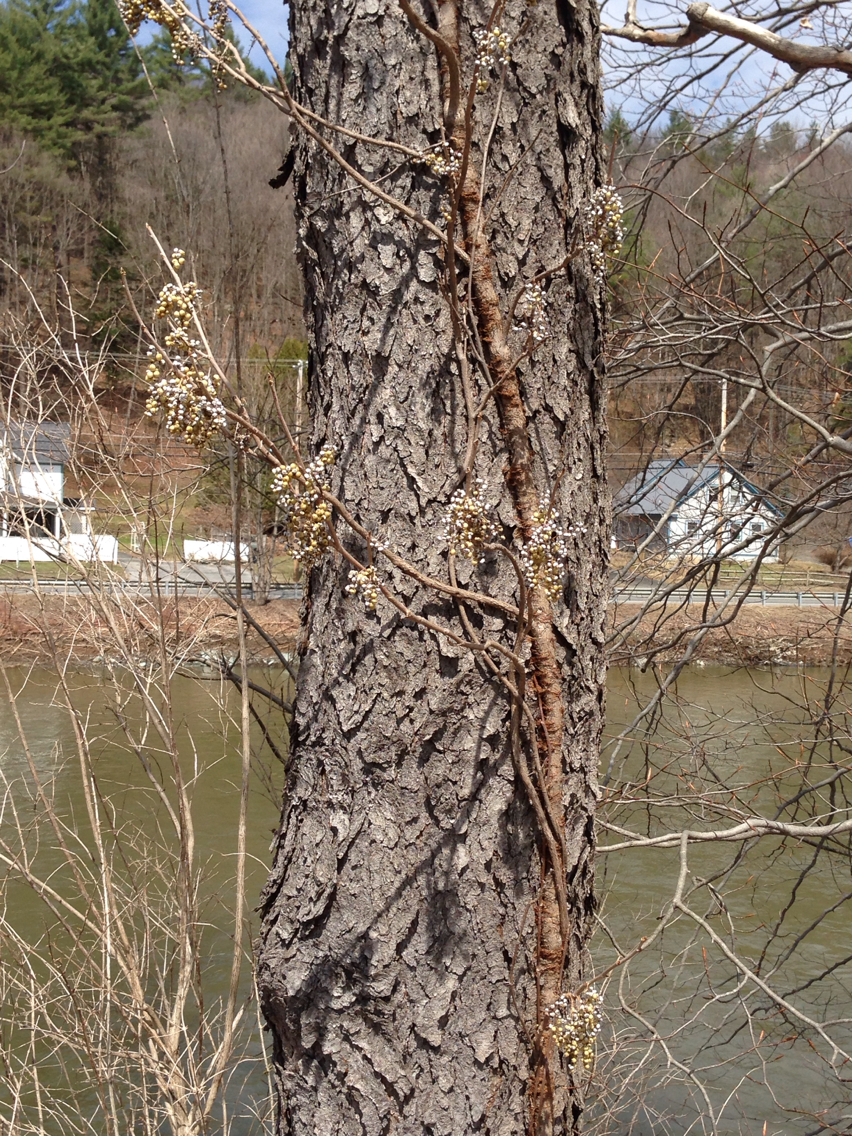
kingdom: Plantae
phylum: Tracheophyta
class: Magnoliopsida
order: Sapindales
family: Anacardiaceae
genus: Toxicodendron
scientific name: Toxicodendron radicans
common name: Poison ivy
